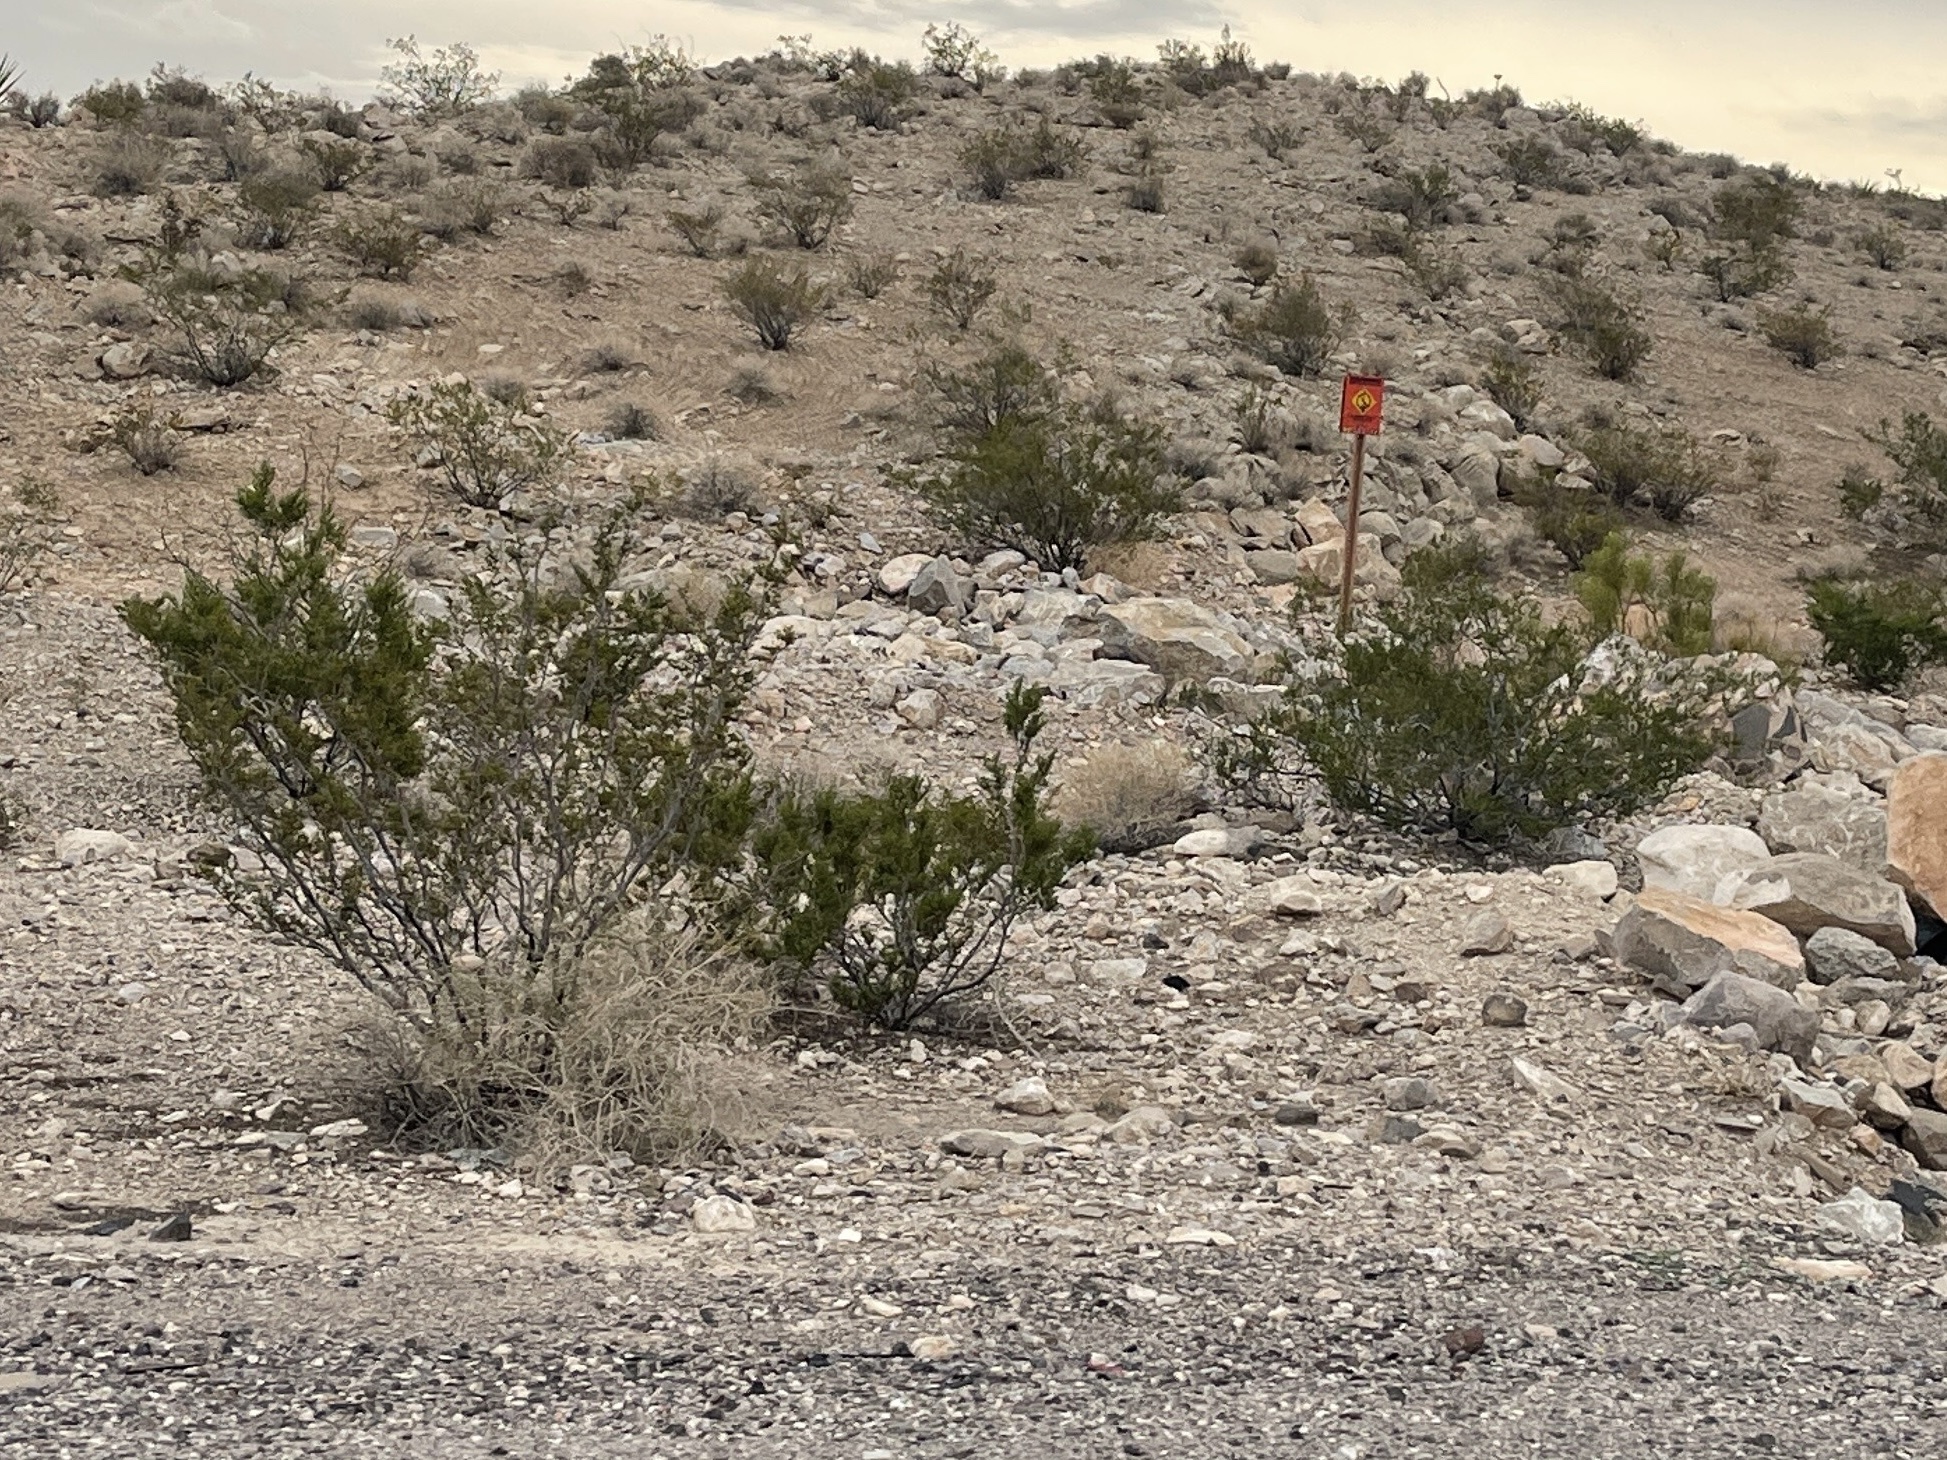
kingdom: Plantae
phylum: Tracheophyta
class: Magnoliopsida
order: Zygophyllales
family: Zygophyllaceae
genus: Larrea
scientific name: Larrea tridentata
